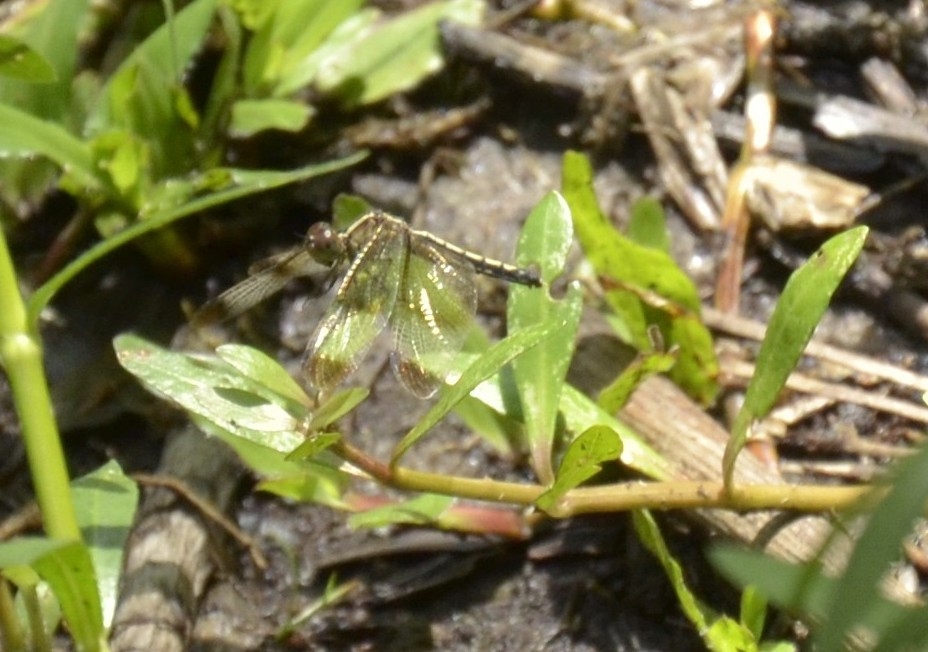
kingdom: Animalia
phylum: Arthropoda
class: Insecta
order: Odonata
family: Libellulidae
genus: Neurothemis
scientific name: Neurothemis tullia
